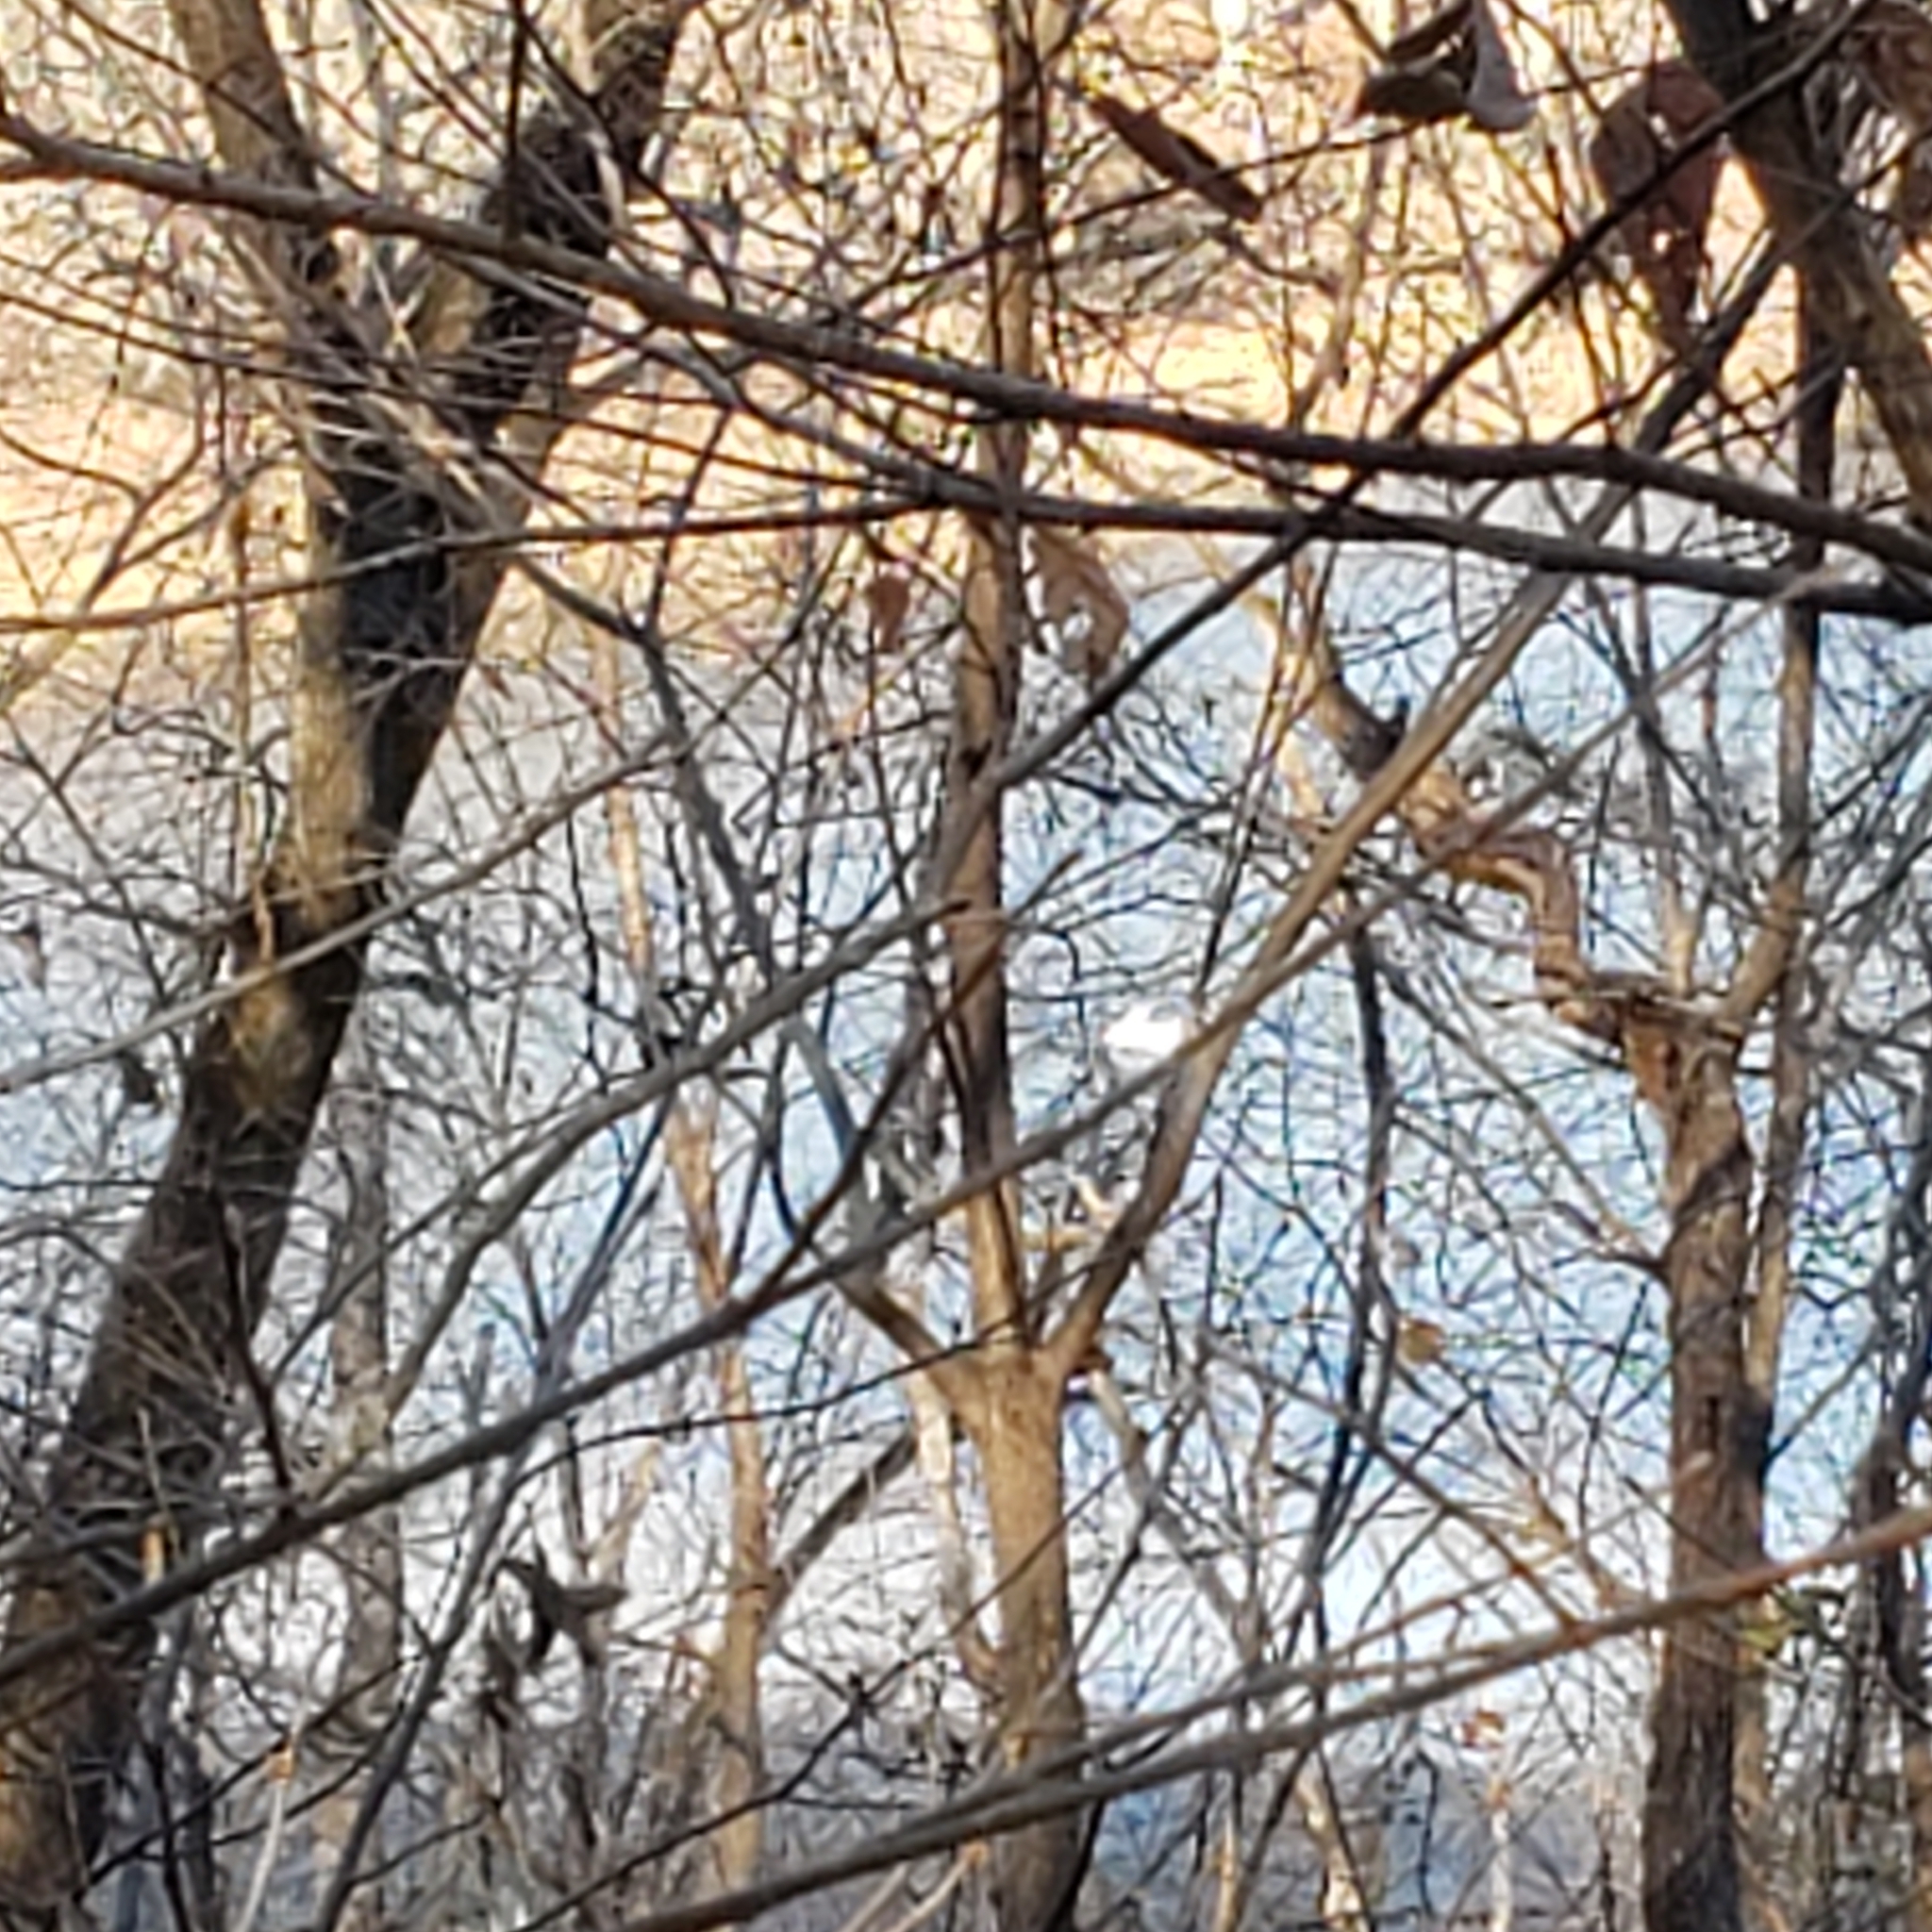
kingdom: Animalia
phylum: Chordata
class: Aves
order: Pelecaniformes
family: Pelecanidae
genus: Pelecanus
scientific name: Pelecanus erythrorhynchos
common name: American white pelican
